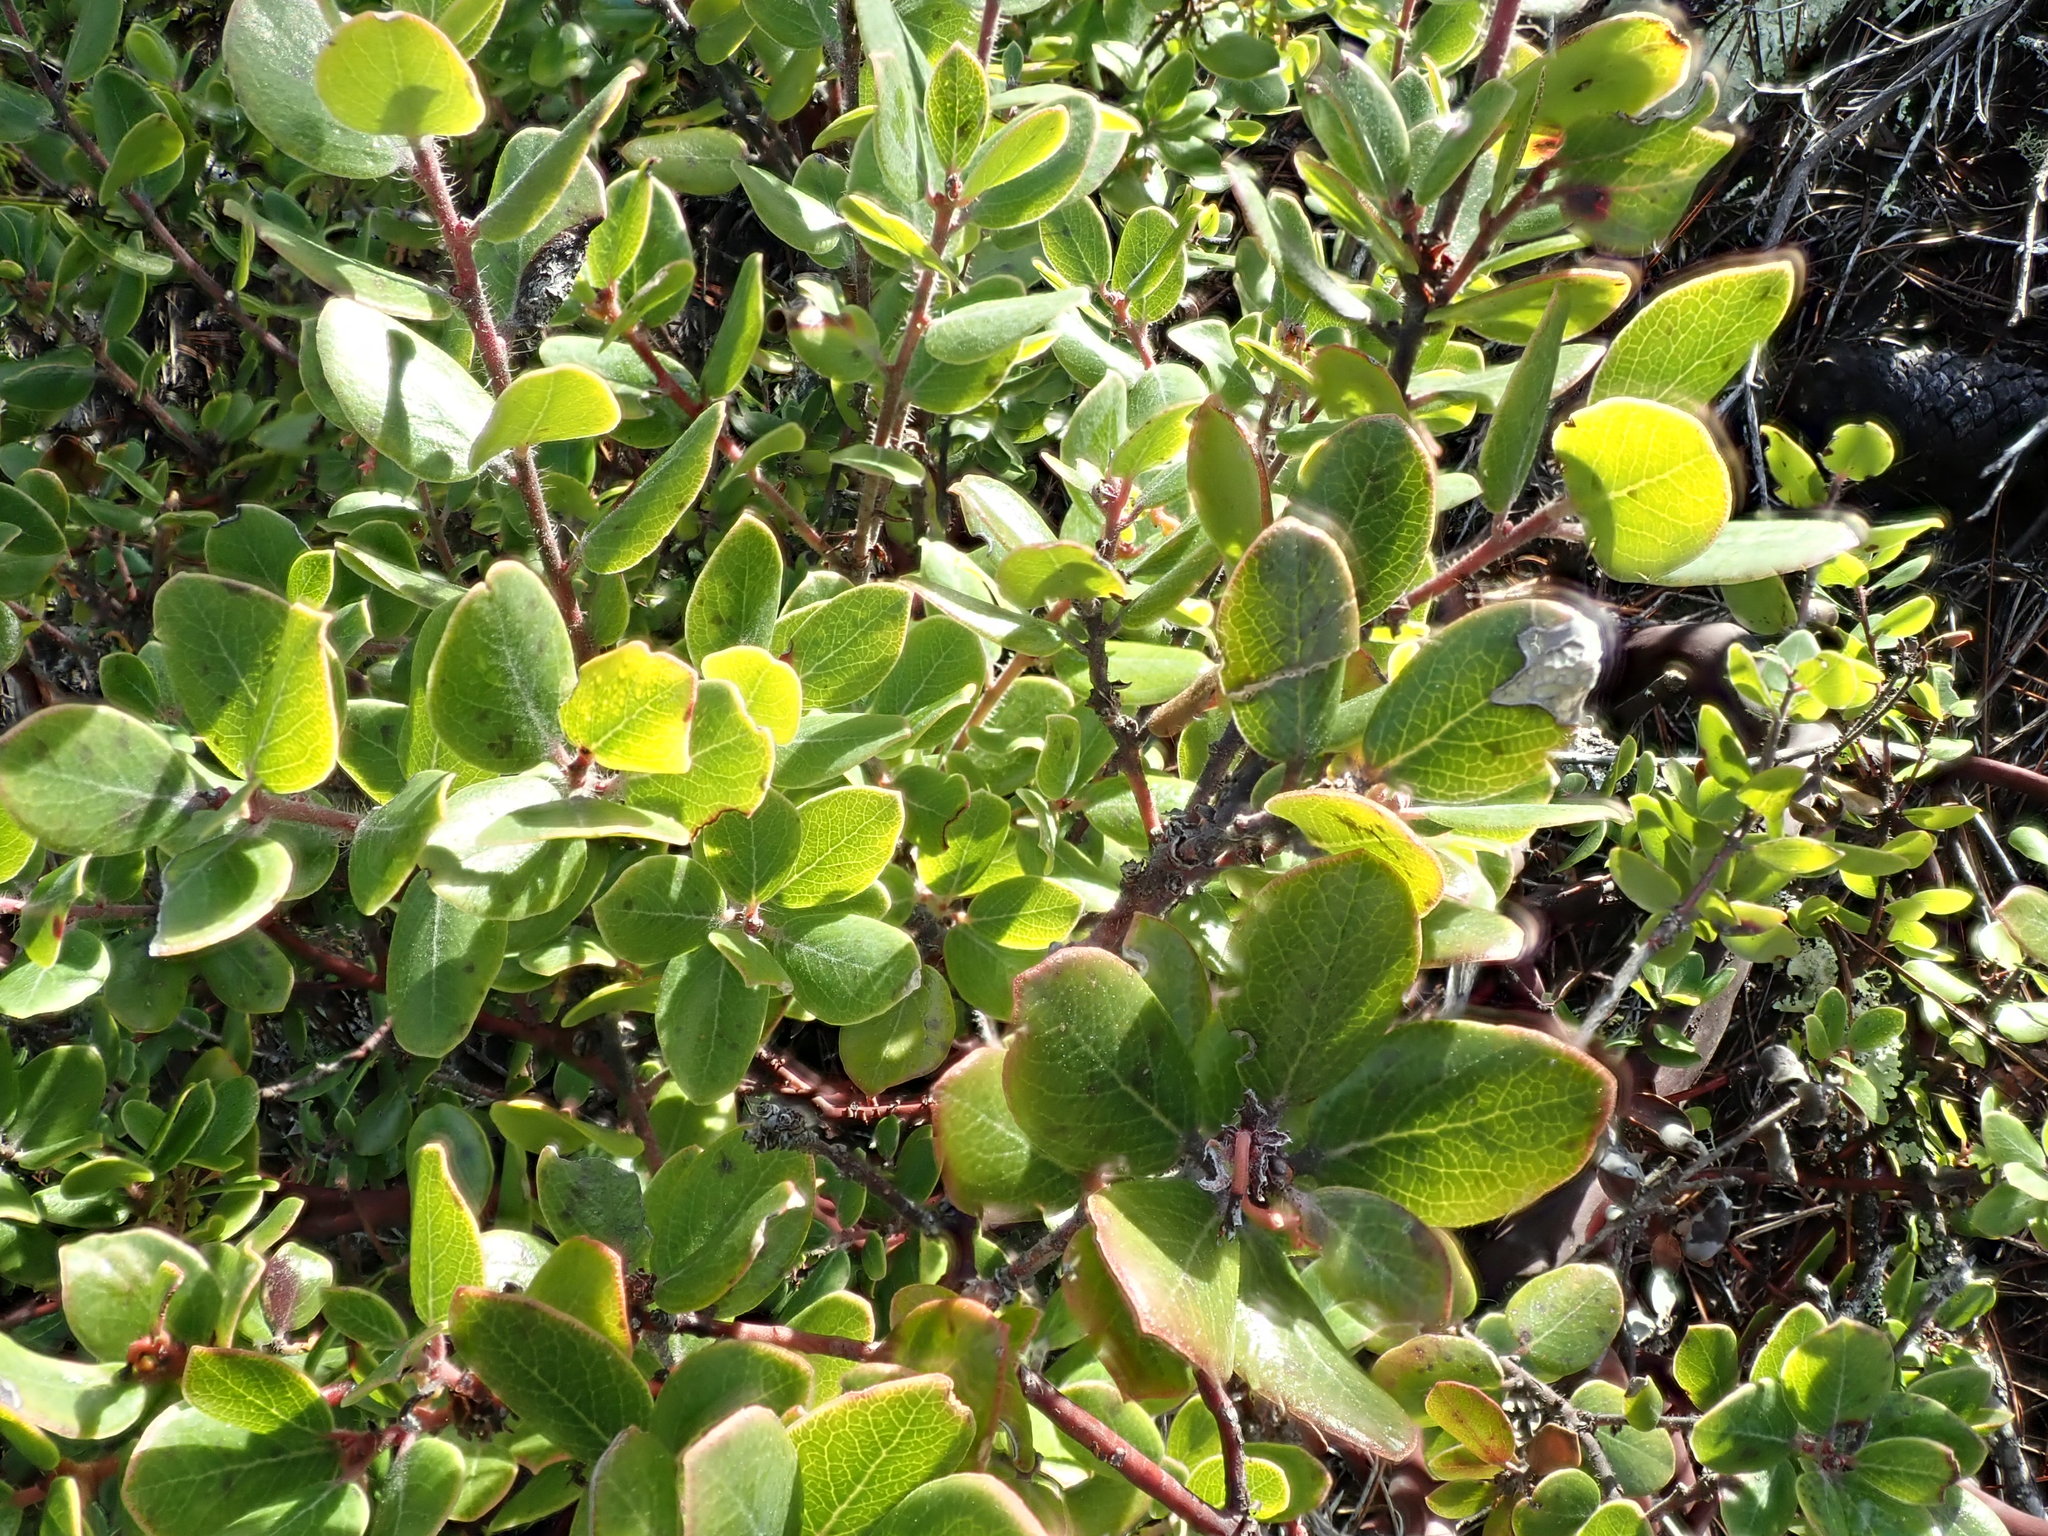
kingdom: Plantae
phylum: Tracheophyta
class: Magnoliopsida
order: Ericales
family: Ericaceae
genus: Arctostaphylos
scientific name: Arctostaphylos nummularia
